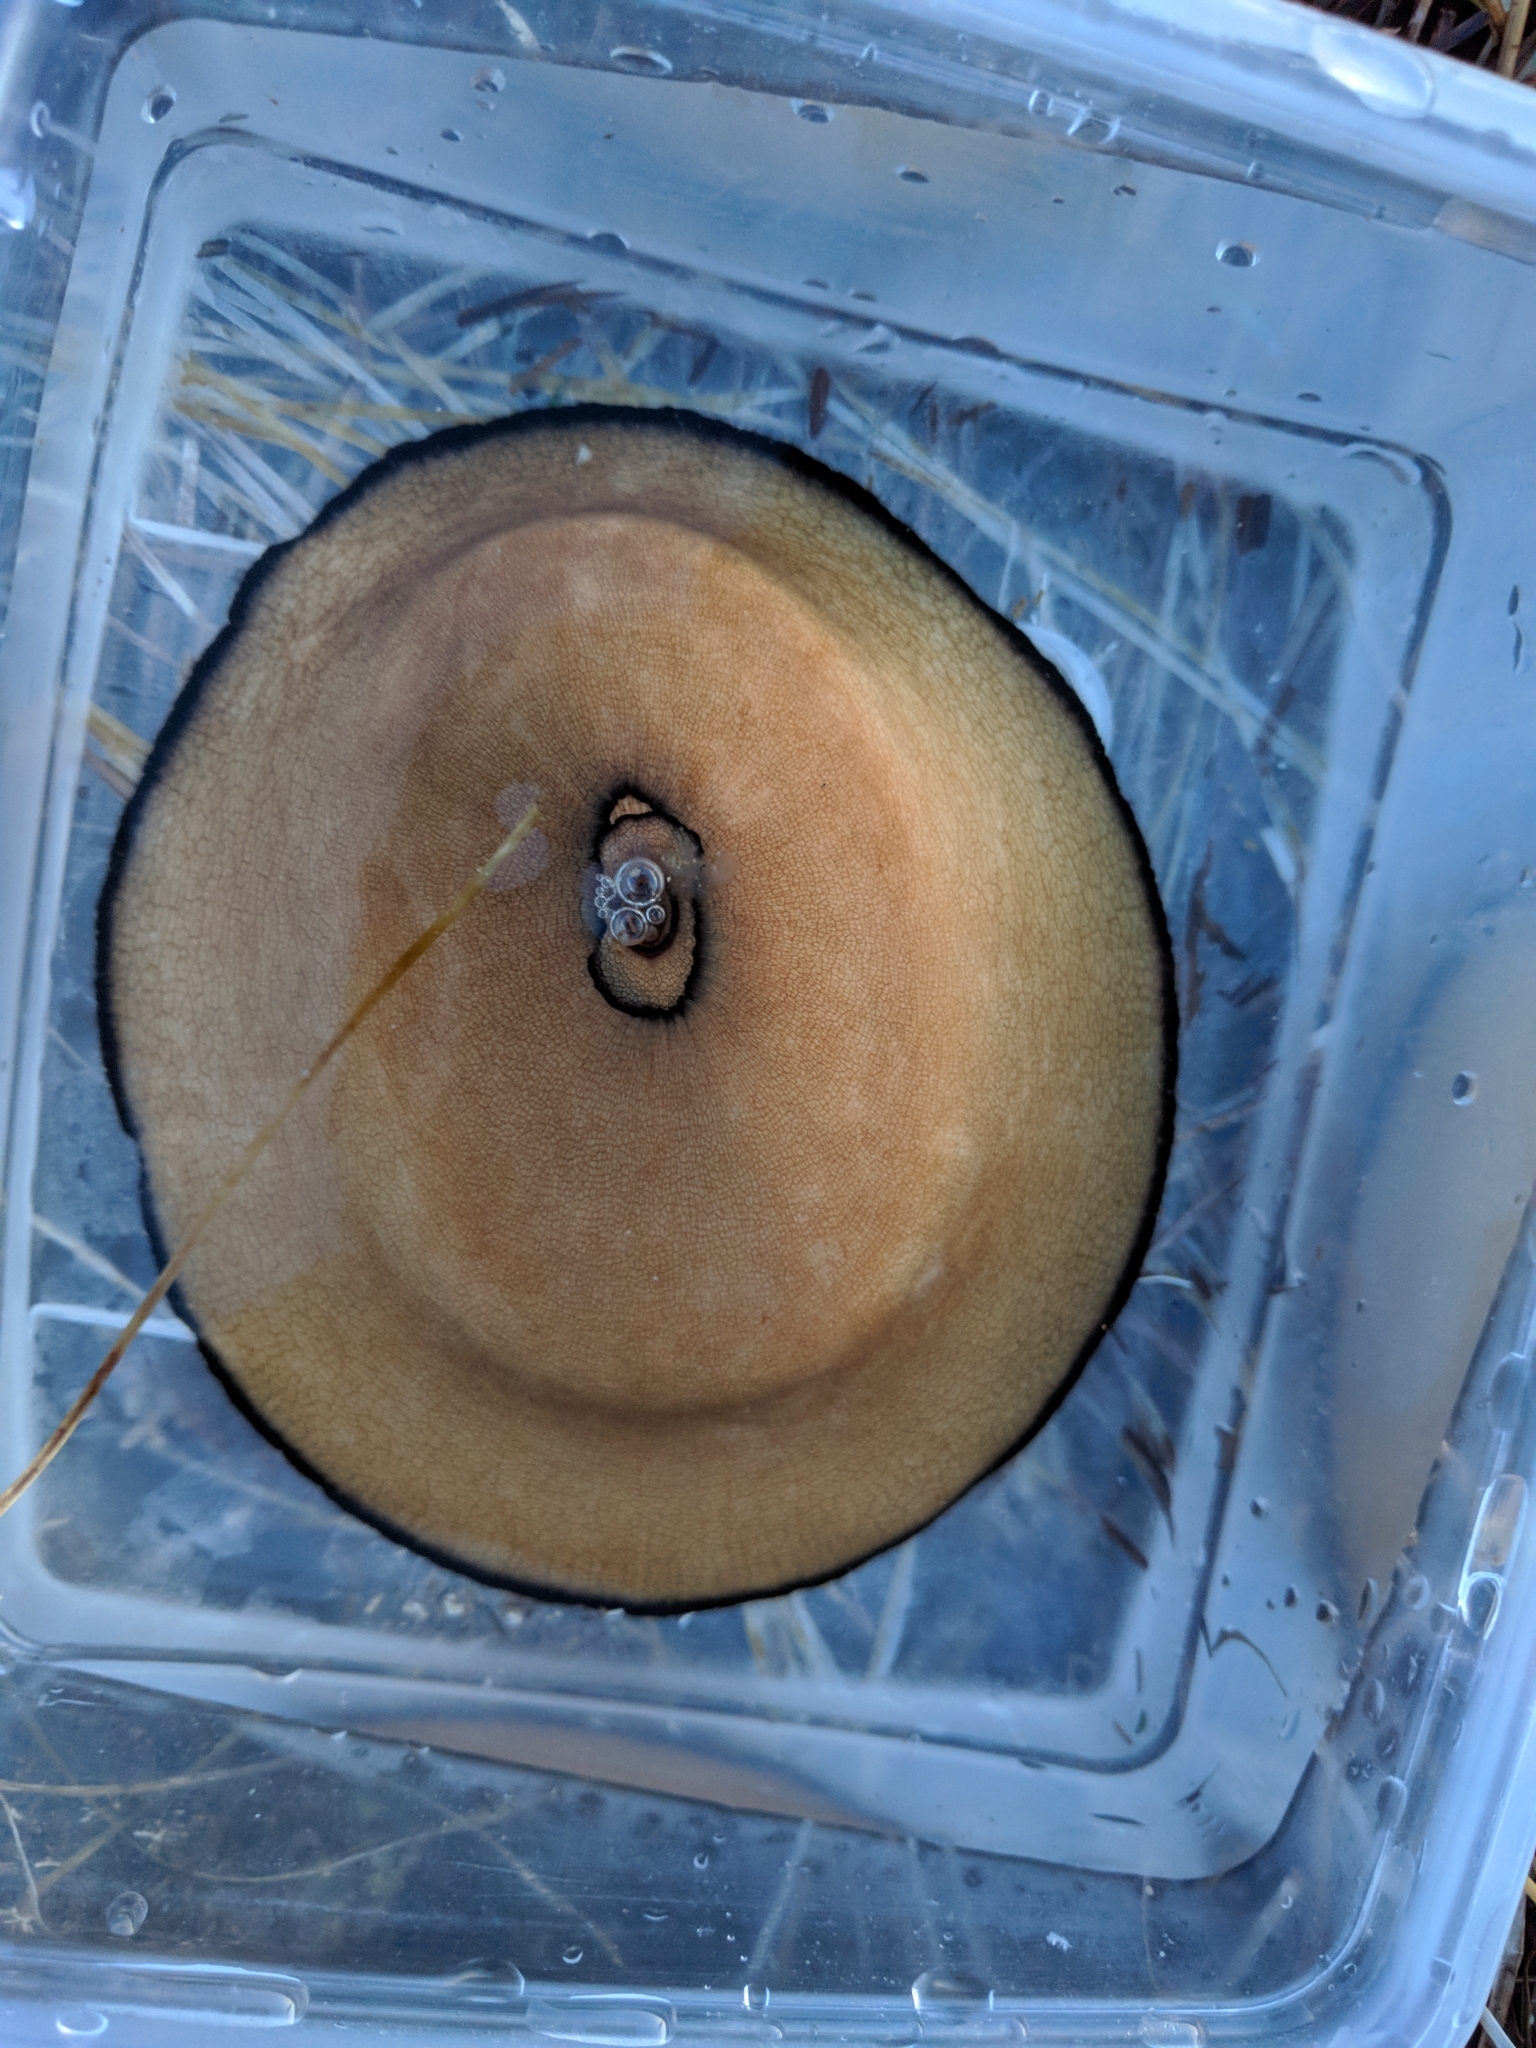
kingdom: Animalia
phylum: Mollusca
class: Gastropoda
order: Lepetellida
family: Fissurellidae
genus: Megathura
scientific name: Megathura crenulata
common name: Giant keyhole limpet
